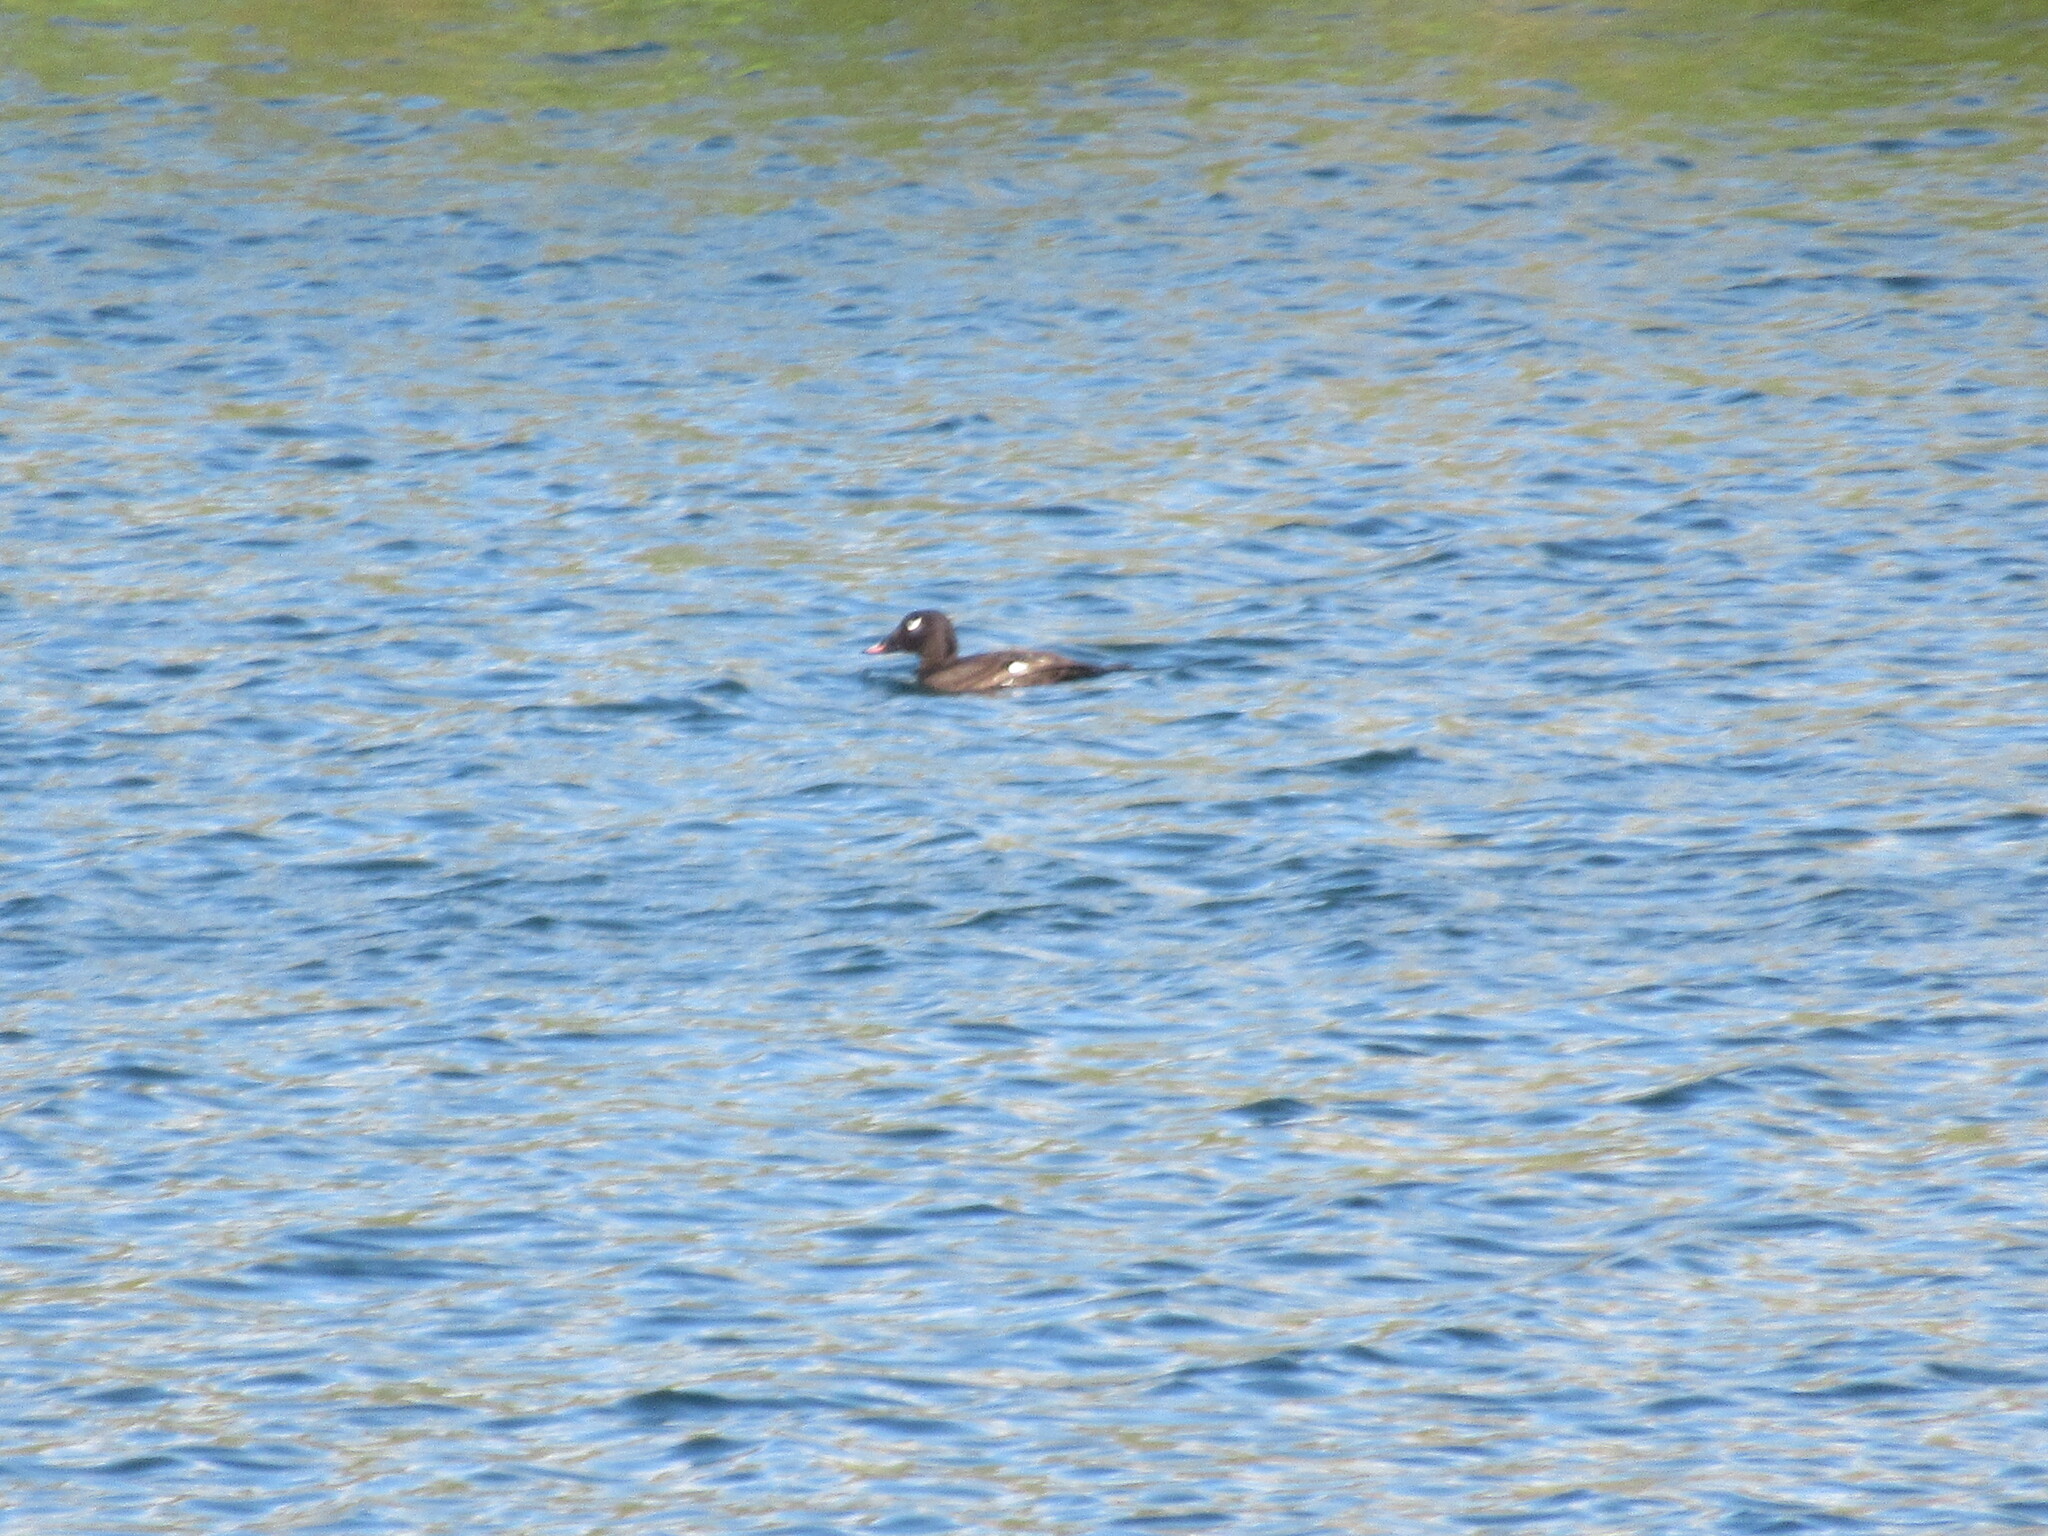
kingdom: Animalia
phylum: Chordata
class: Aves
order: Anseriformes
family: Anatidae
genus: Melanitta
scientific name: Melanitta deglandi
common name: White-winged scoter
